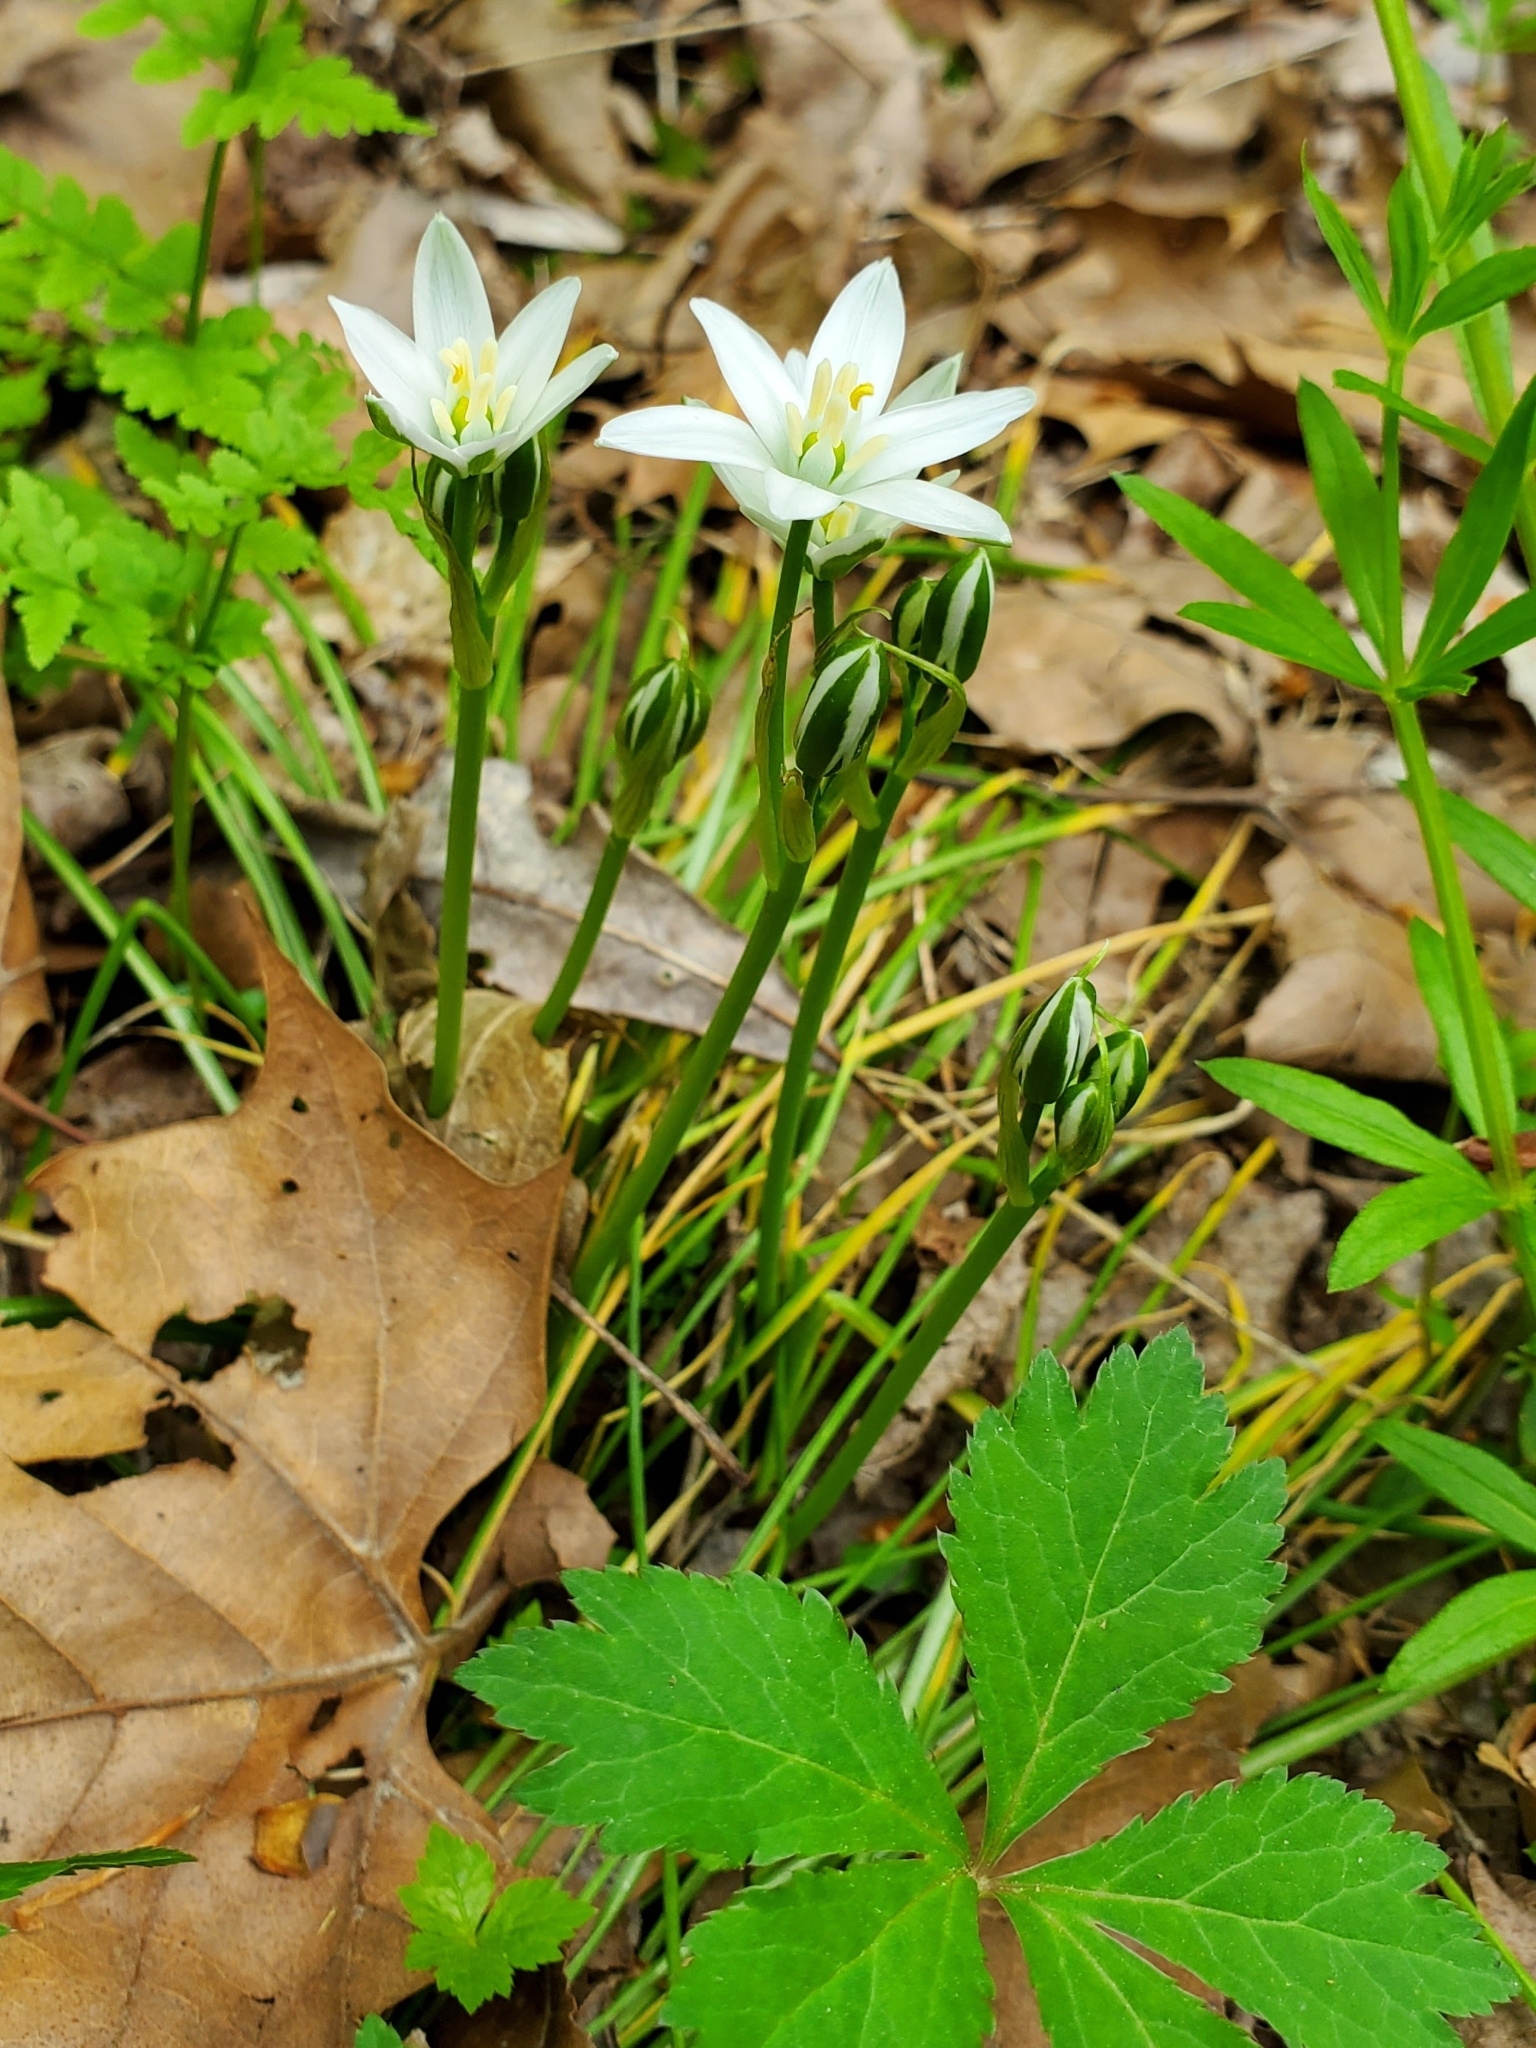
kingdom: Plantae
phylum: Tracheophyta
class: Liliopsida
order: Asparagales
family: Asparagaceae
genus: Ornithogalum
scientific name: Ornithogalum umbellatum
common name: Garden star-of-bethlehem
